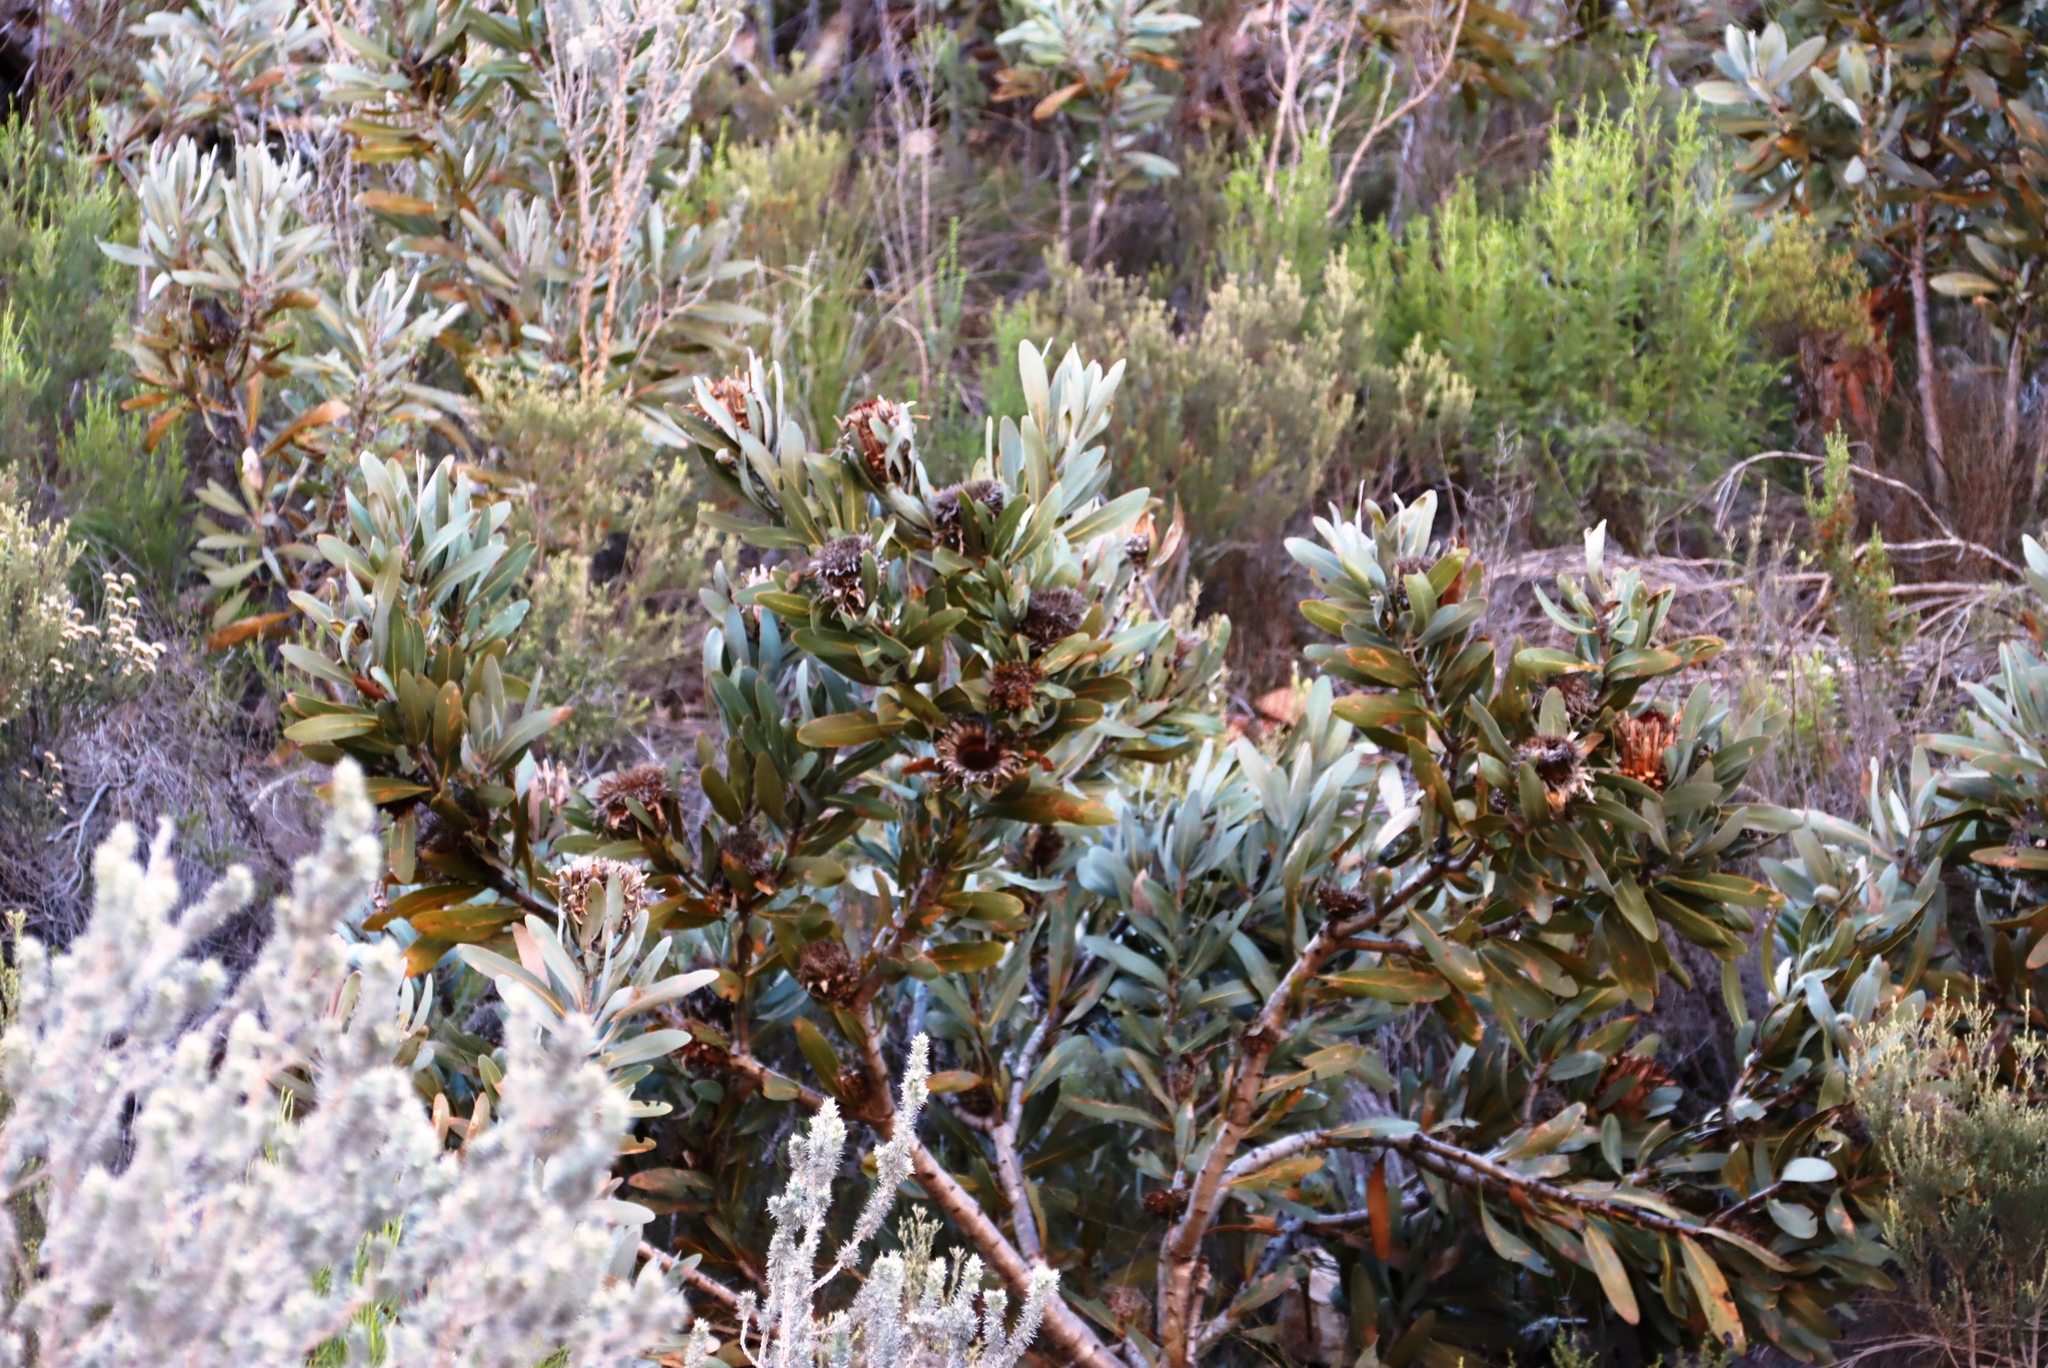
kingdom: Plantae
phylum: Tracheophyta
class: Magnoliopsida
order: Proteales
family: Proteaceae
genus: Protea
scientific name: Protea lorifolia
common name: Strap-leaved protea
